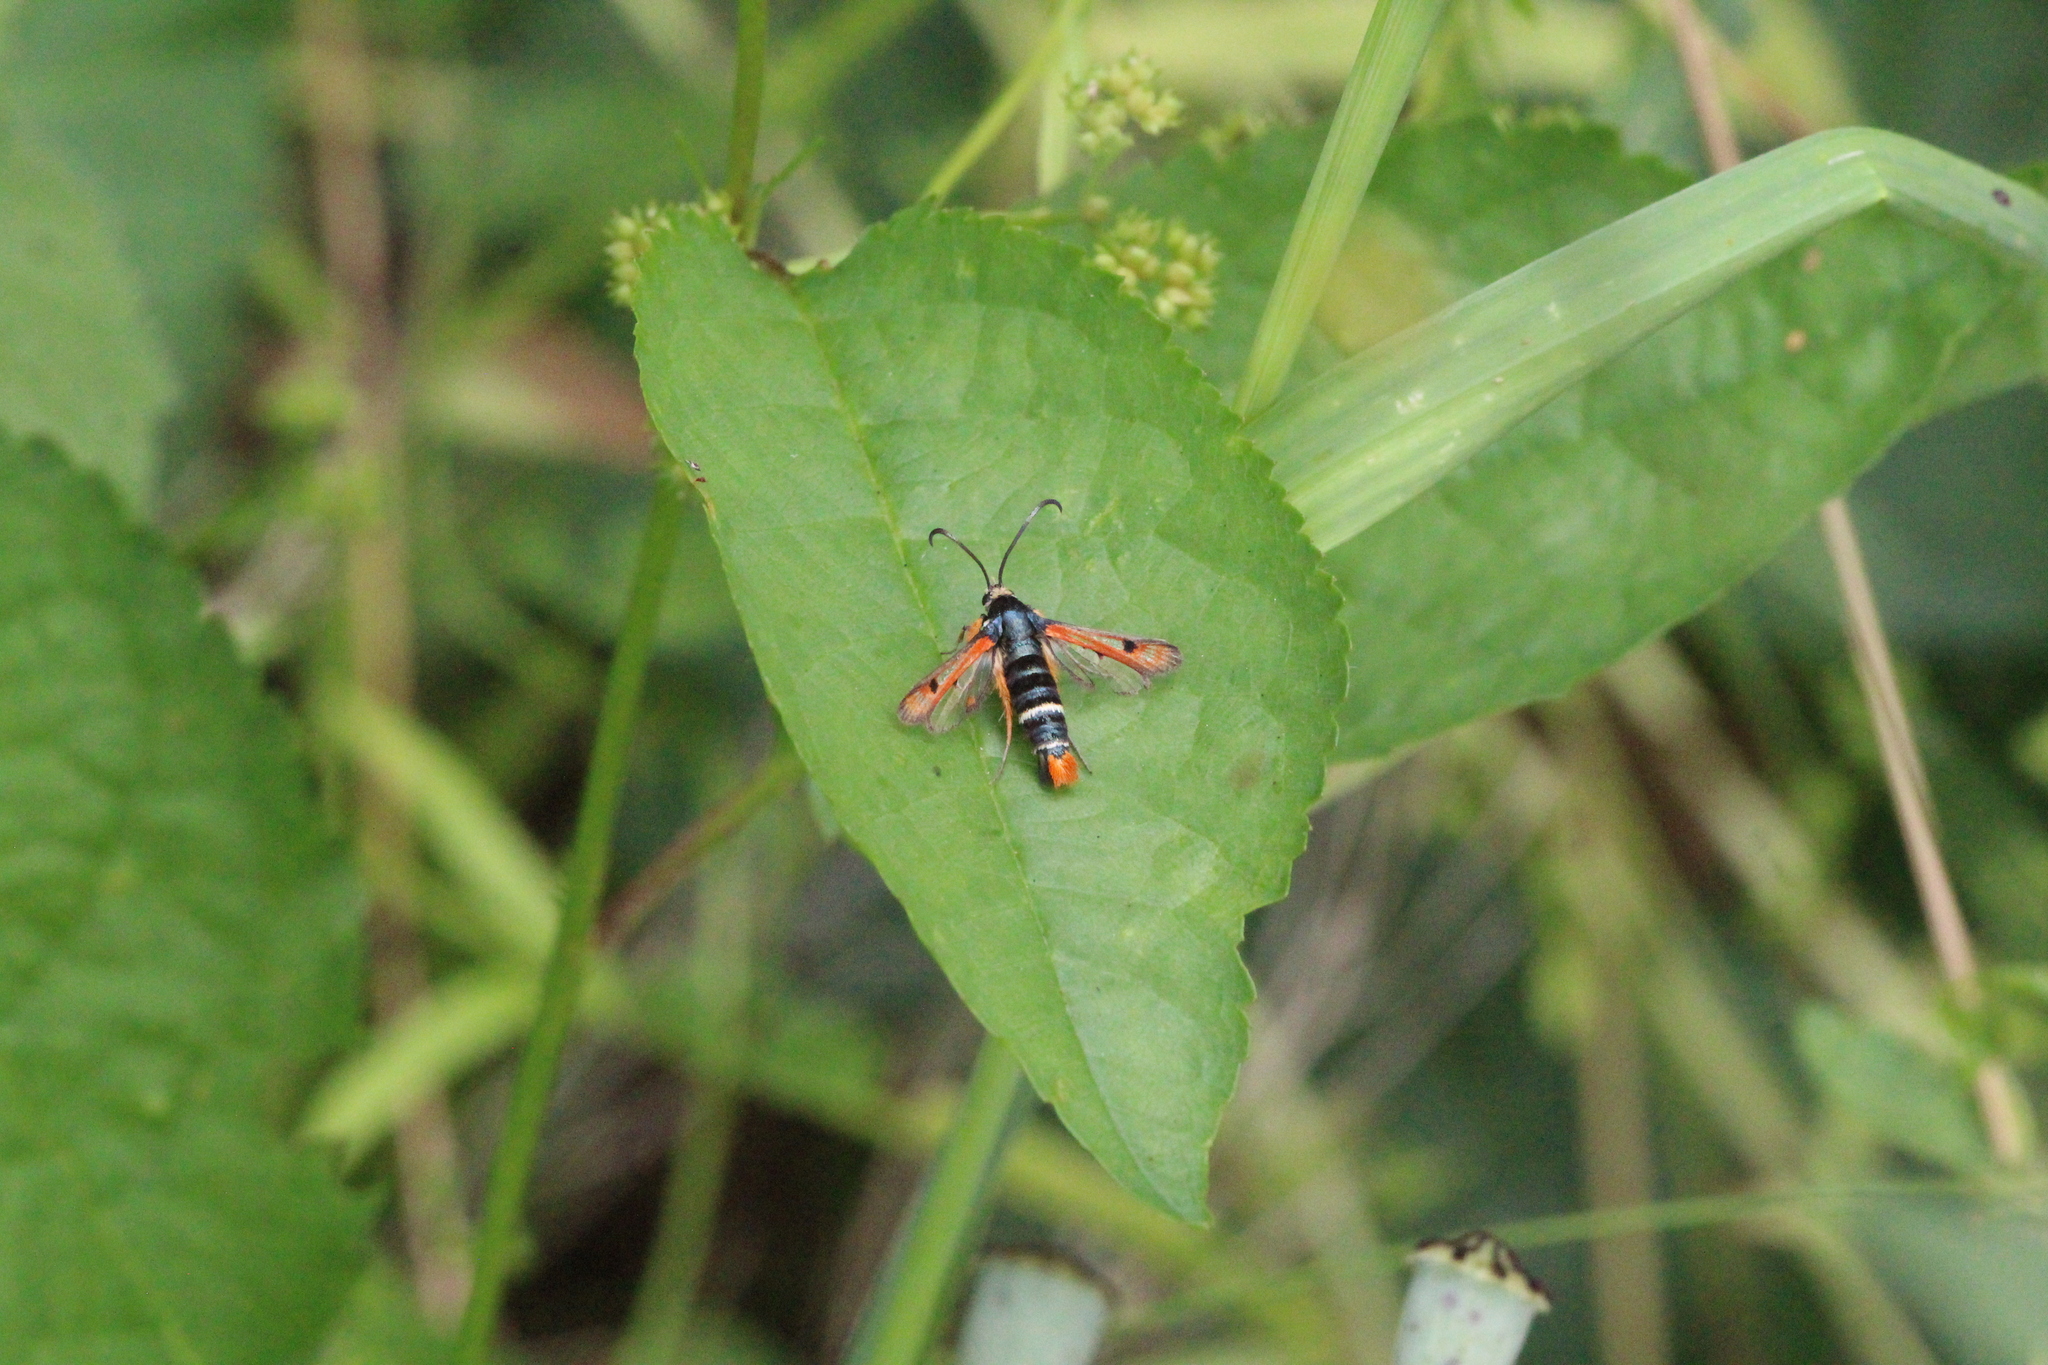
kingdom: Animalia
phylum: Arthropoda
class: Insecta
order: Lepidoptera
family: Sesiidae
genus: Pyropteron
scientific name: Pyropteron chrysidiforme
